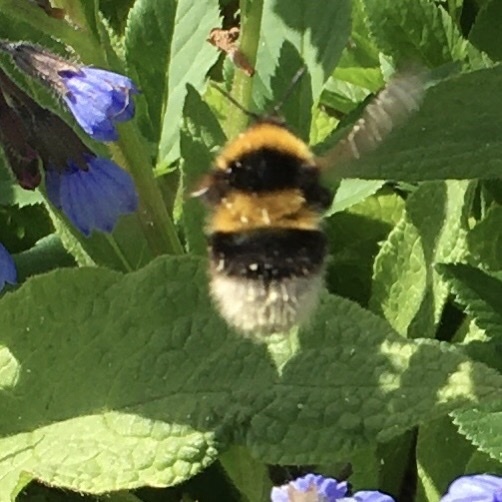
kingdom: Animalia
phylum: Arthropoda
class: Insecta
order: Hymenoptera
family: Apidae
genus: Bombus
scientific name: Bombus hortorum
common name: Garden bumblebee
